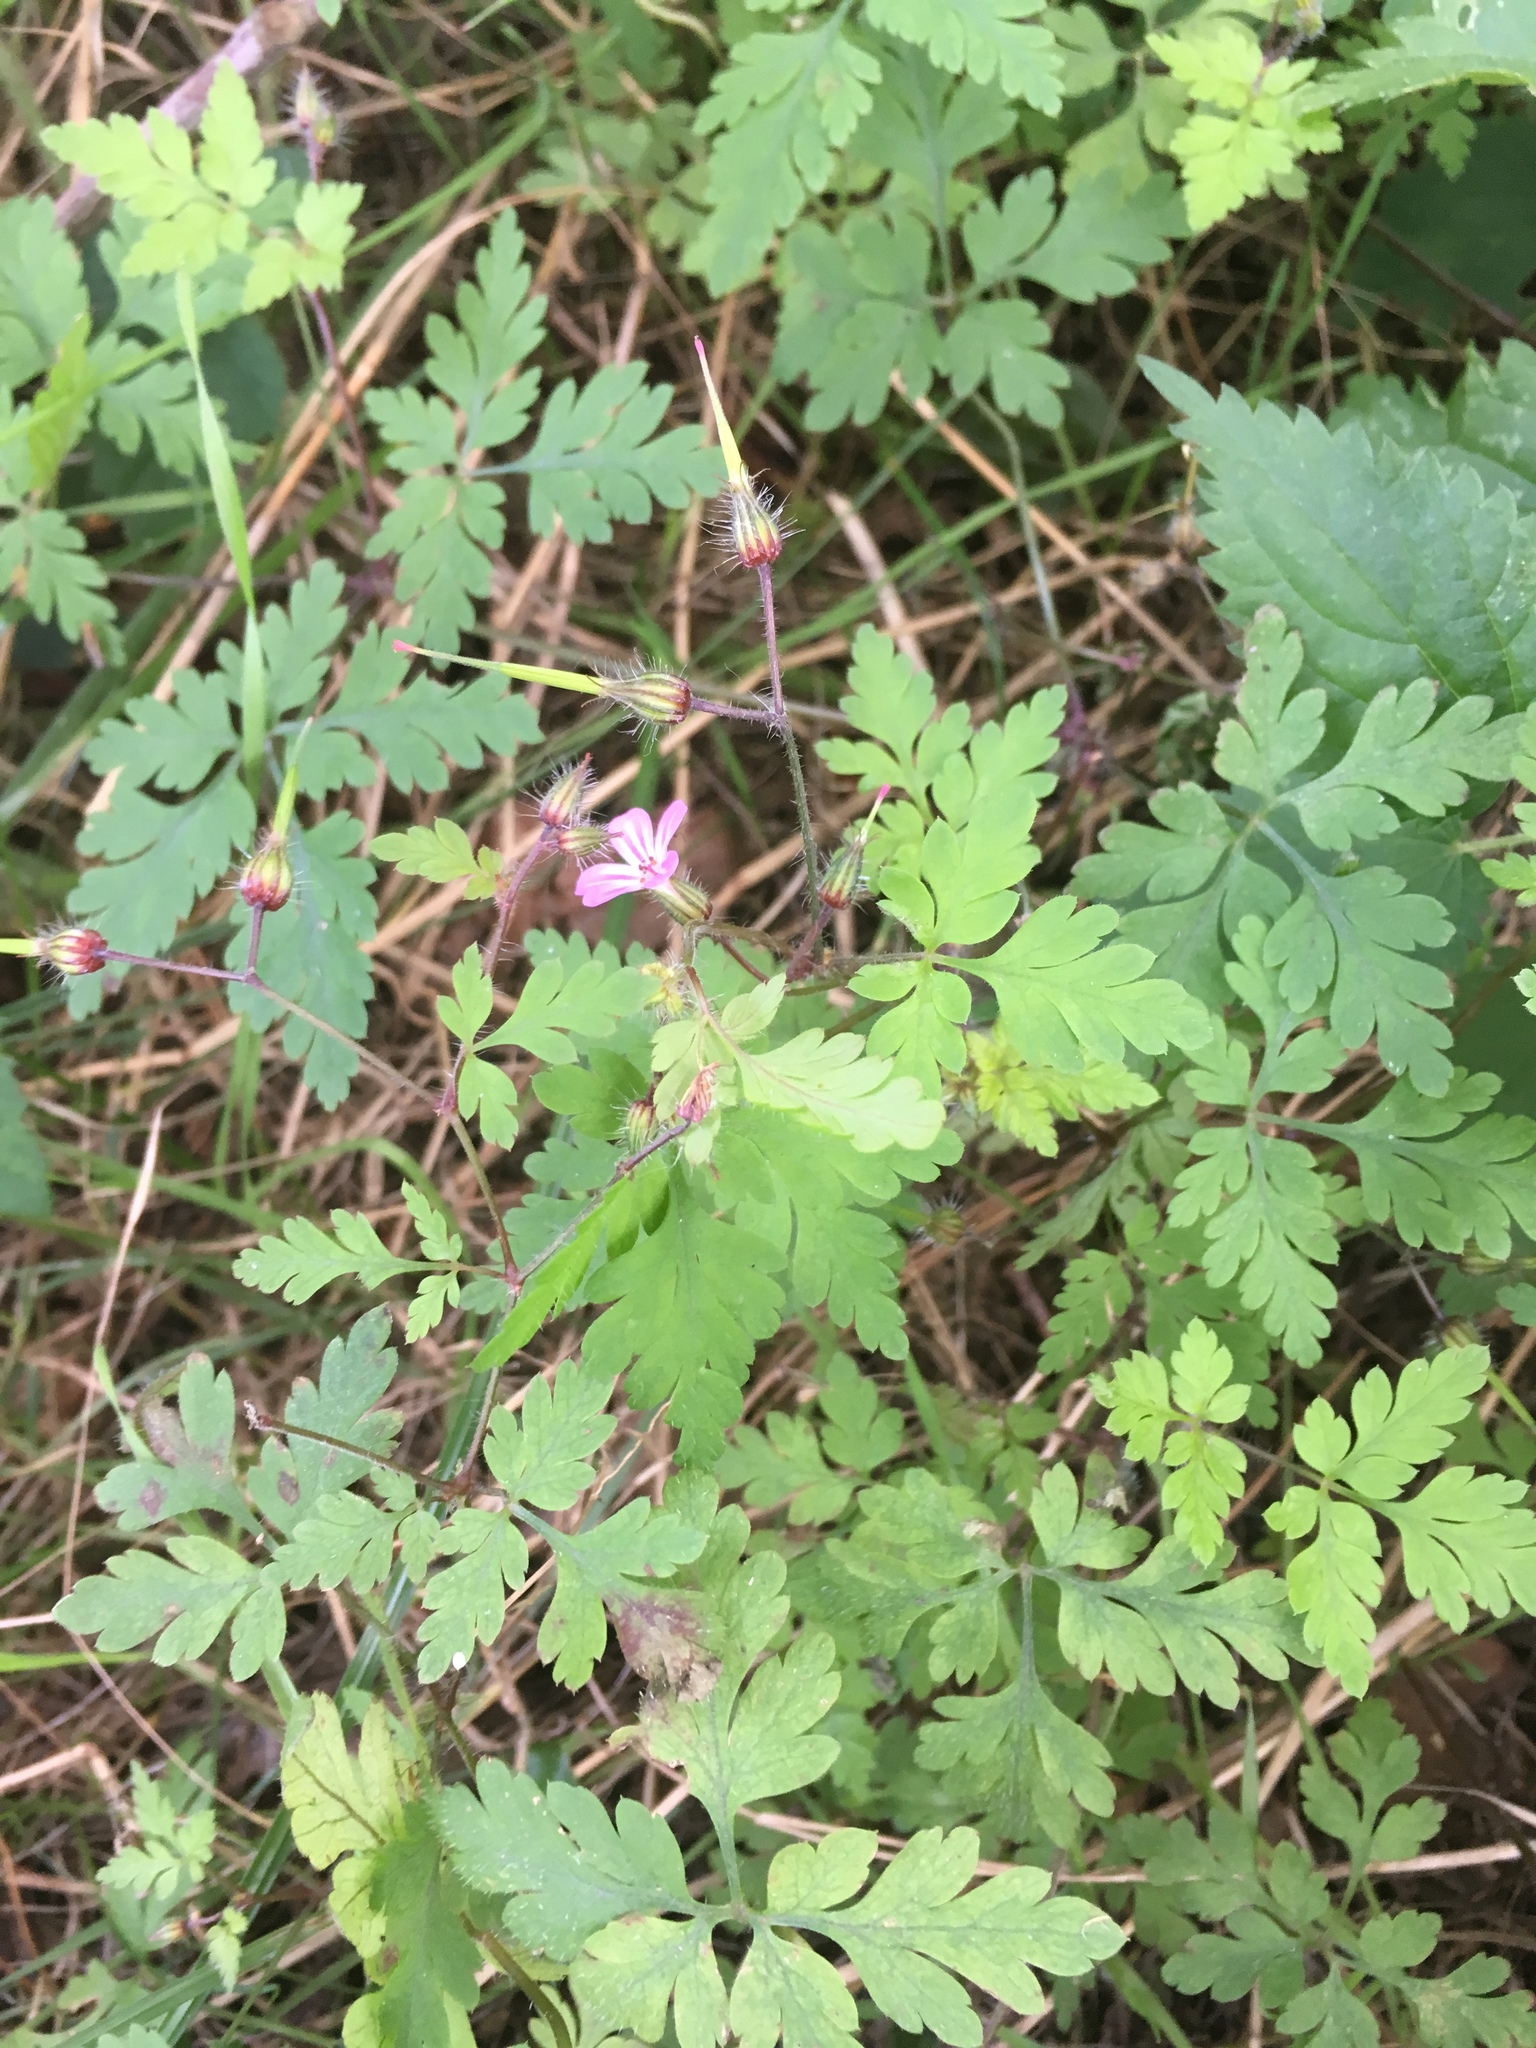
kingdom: Plantae
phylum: Tracheophyta
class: Magnoliopsida
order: Geraniales
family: Geraniaceae
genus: Geranium
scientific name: Geranium robertianum
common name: Herb-robert
